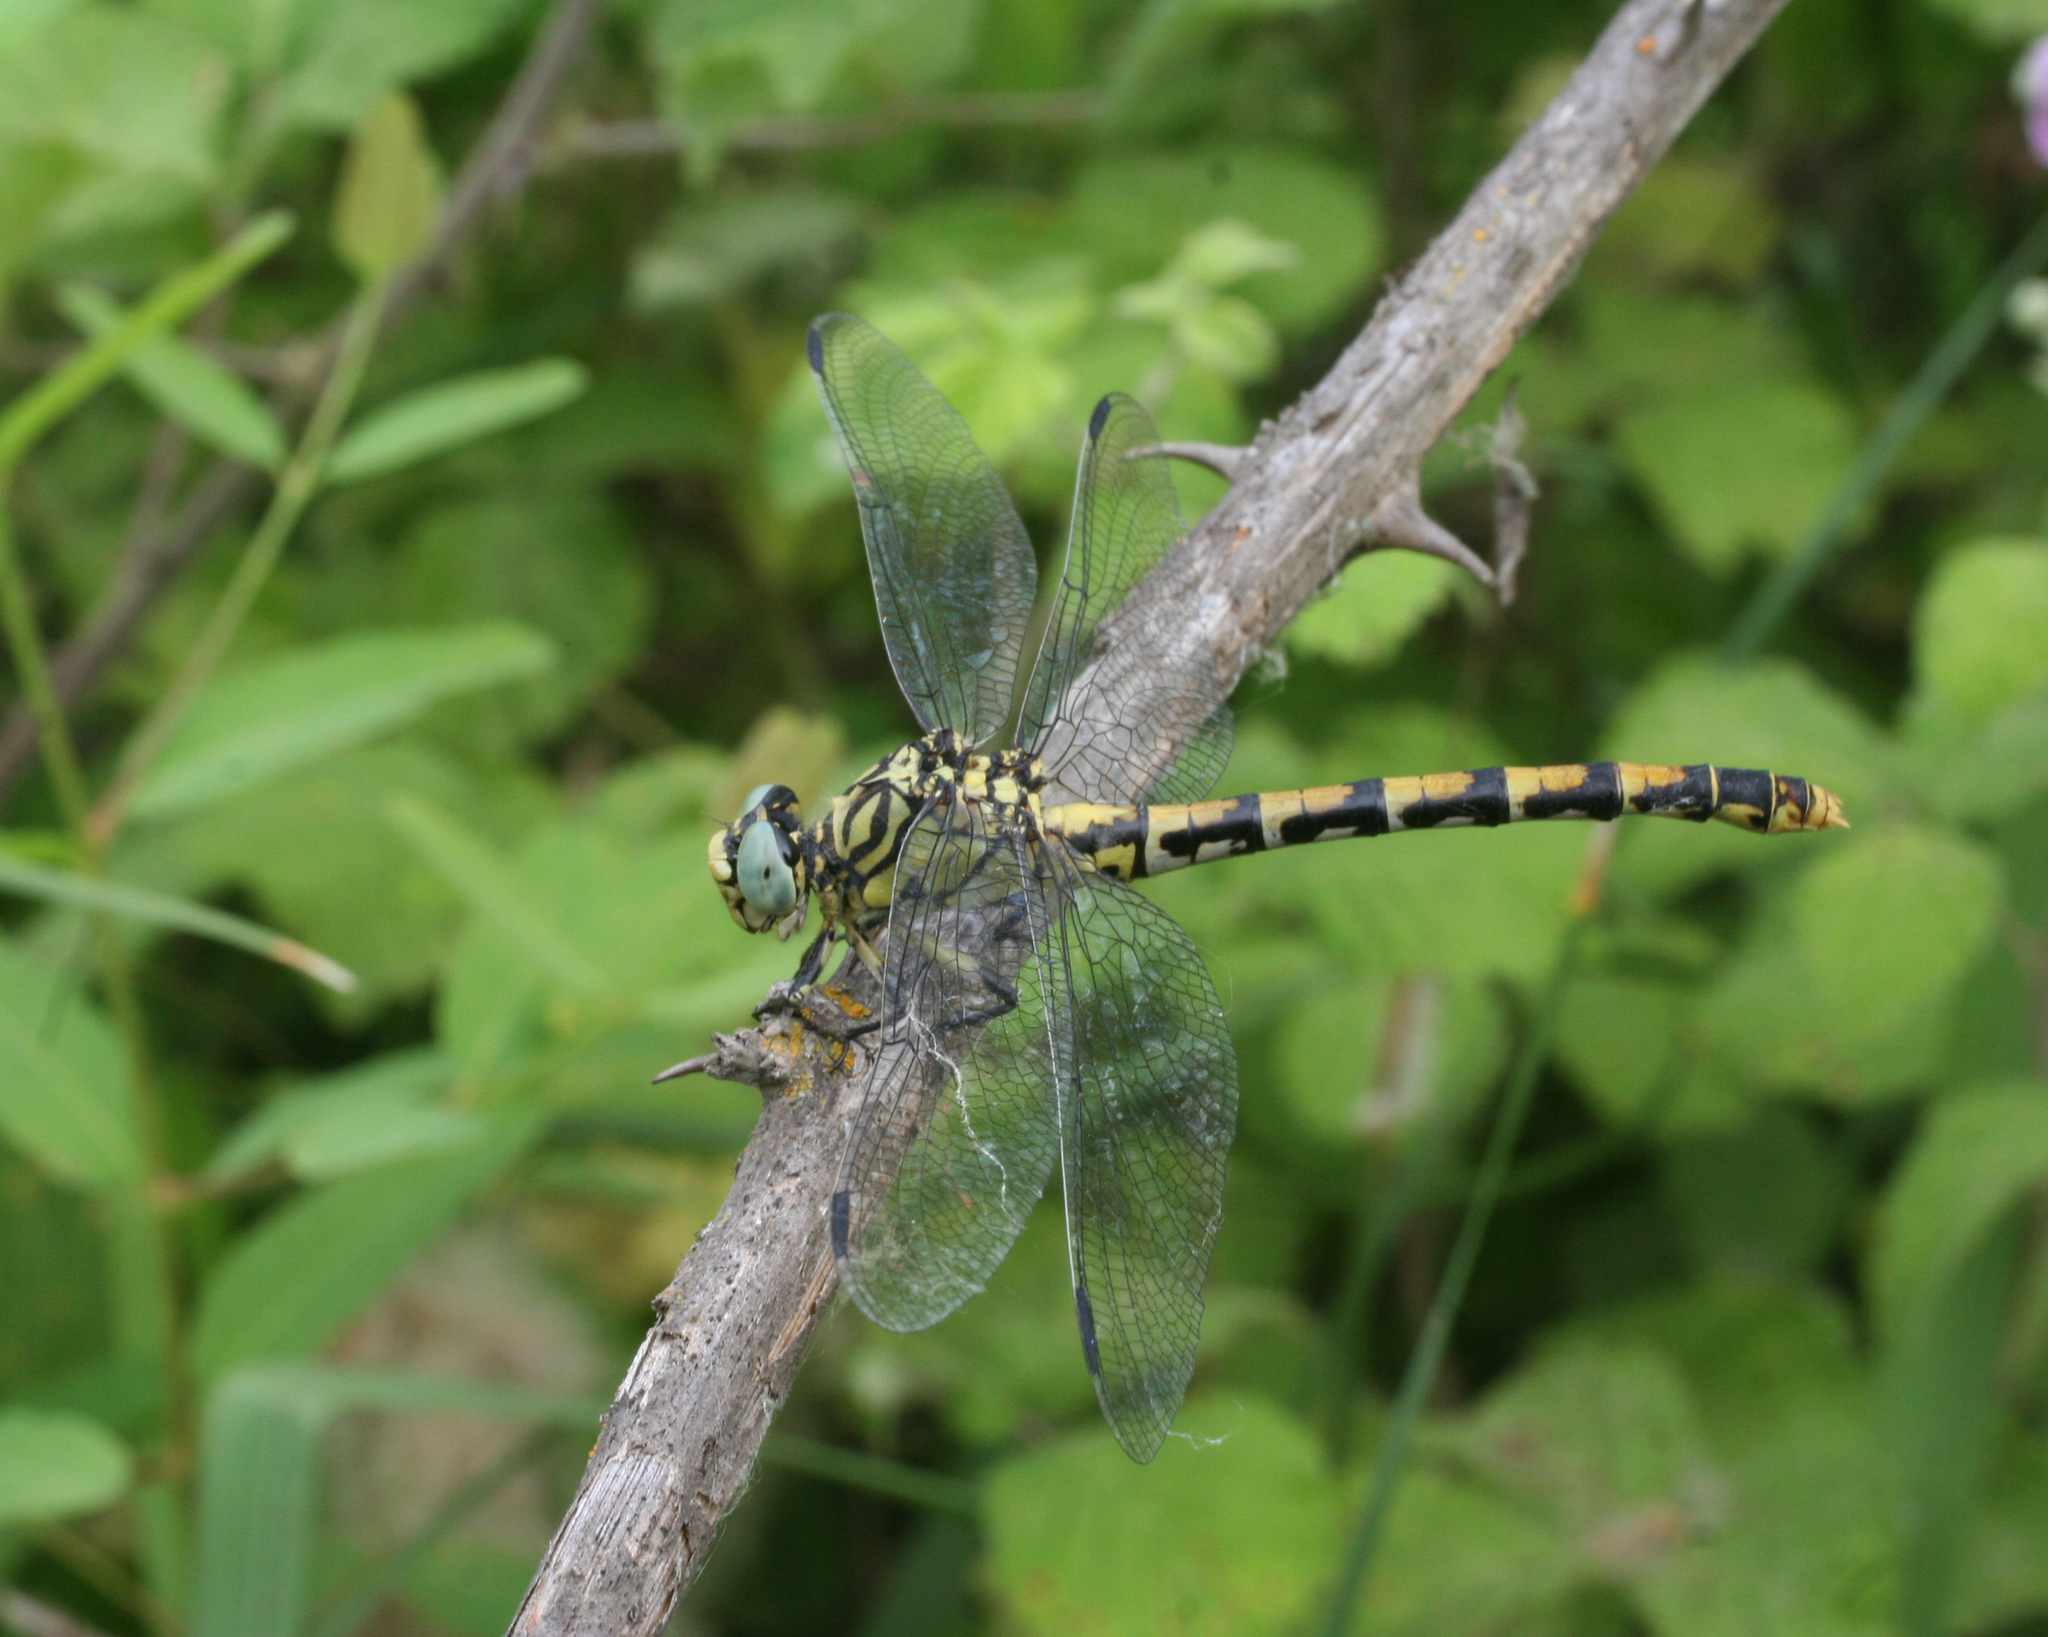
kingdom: Animalia
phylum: Arthropoda
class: Insecta
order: Odonata
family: Gomphidae
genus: Onychogomphus
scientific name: Onychogomphus forcipatus
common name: Small pincertail
